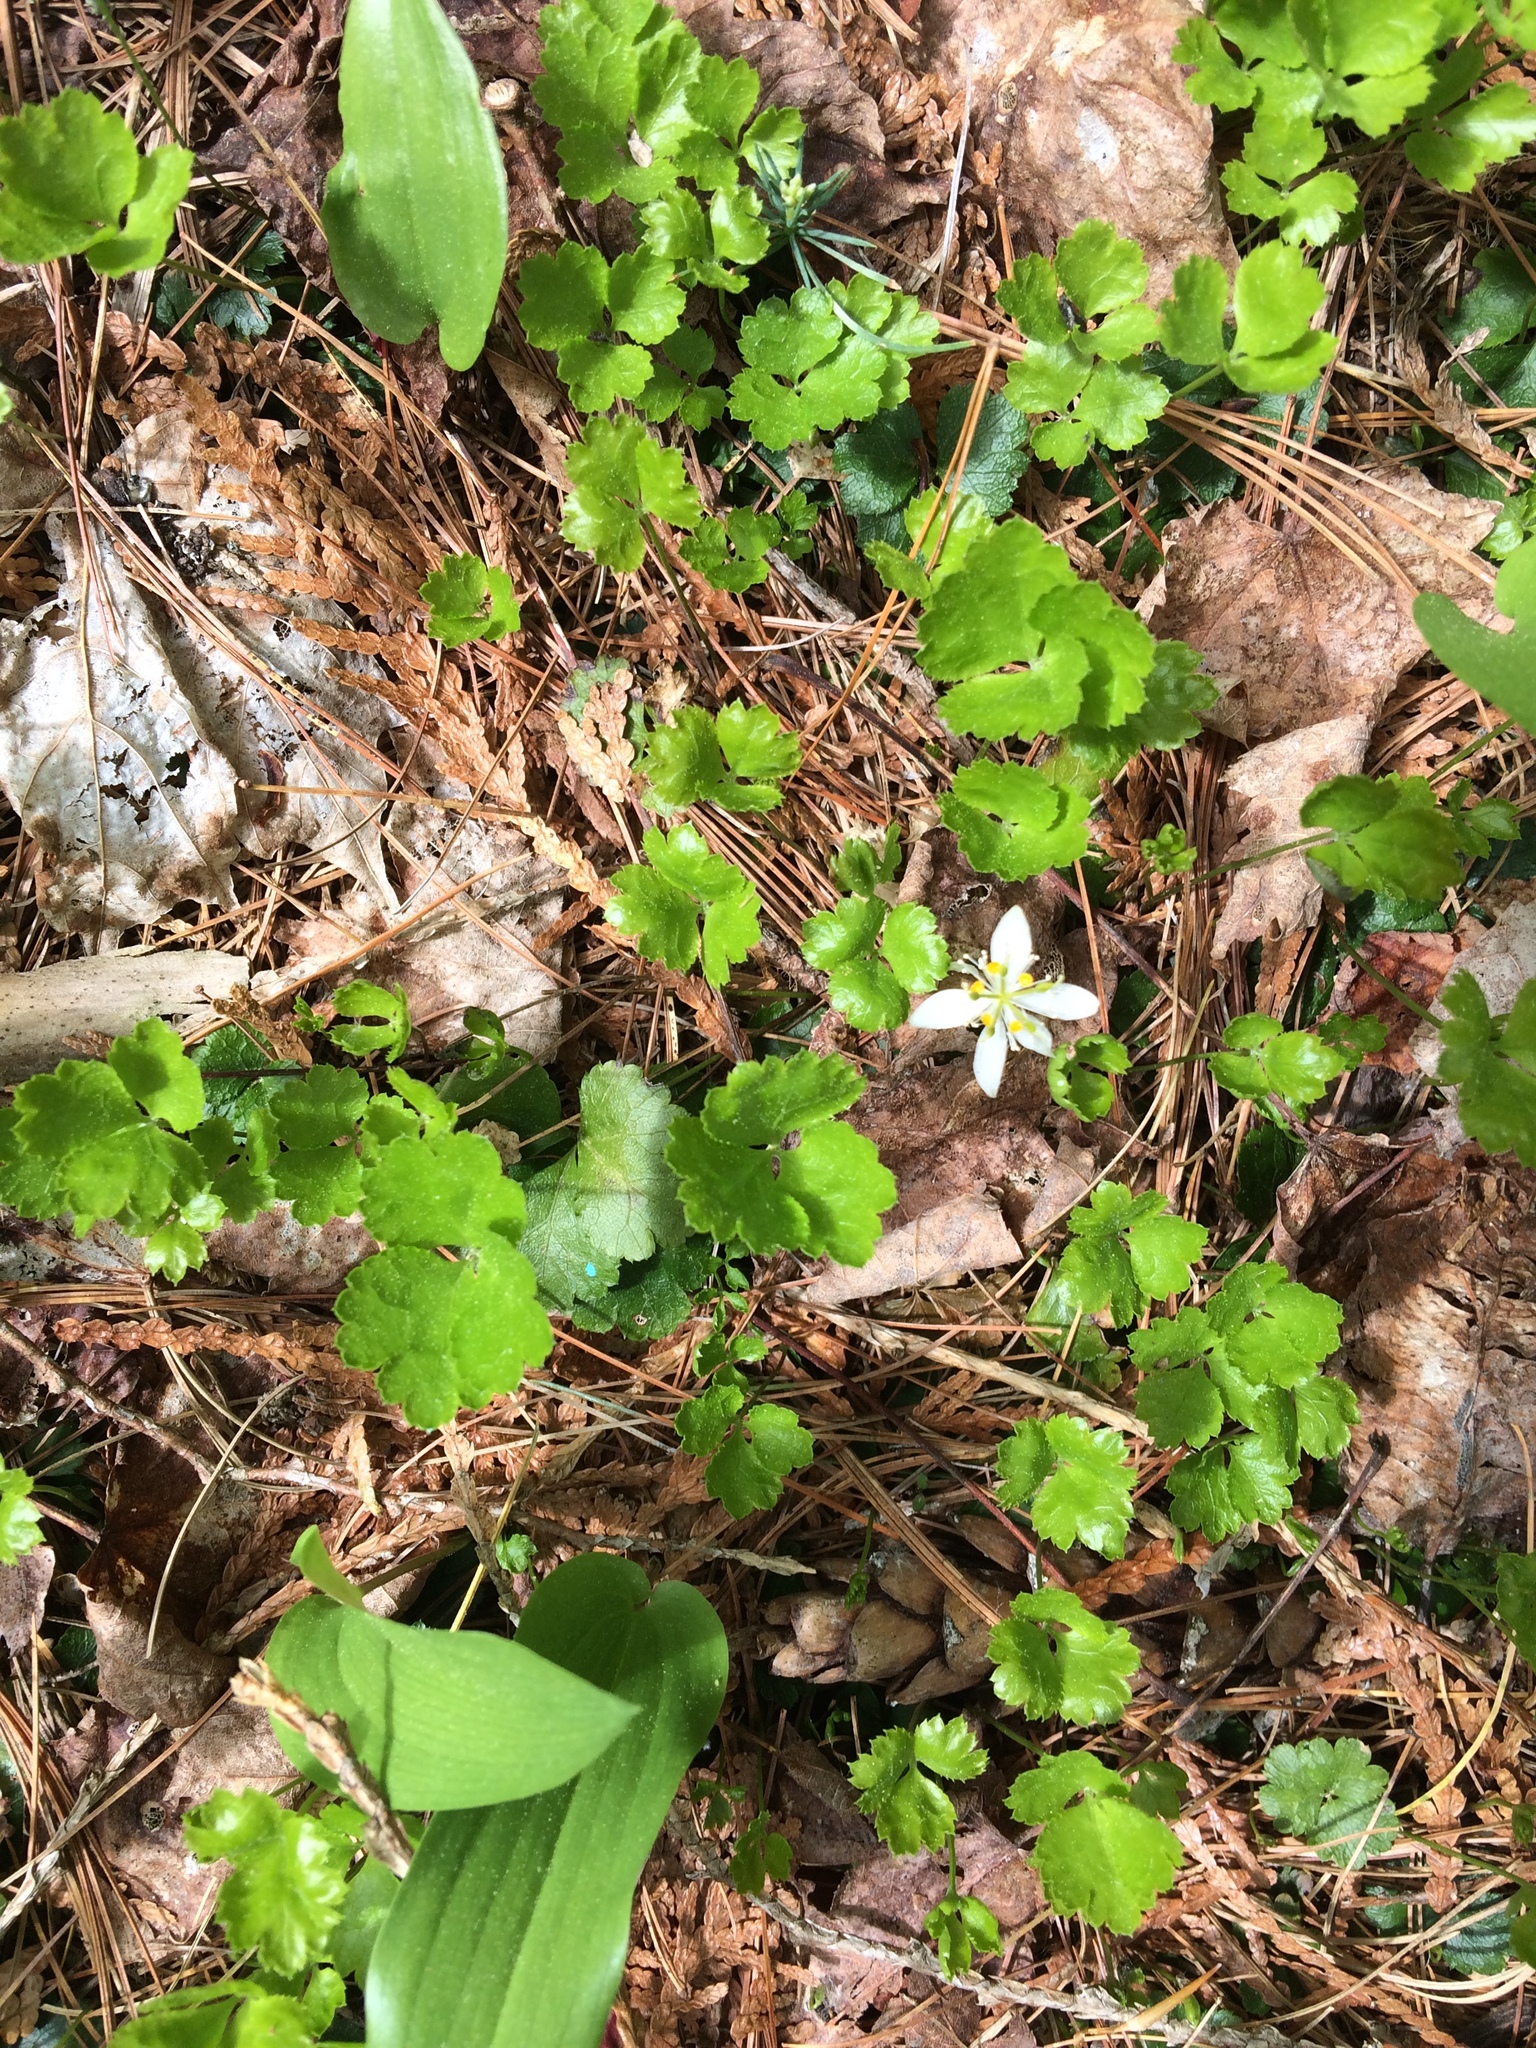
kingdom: Plantae
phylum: Tracheophyta
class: Magnoliopsida
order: Ranunculales
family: Ranunculaceae
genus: Coptis
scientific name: Coptis trifolia
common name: Canker-root
